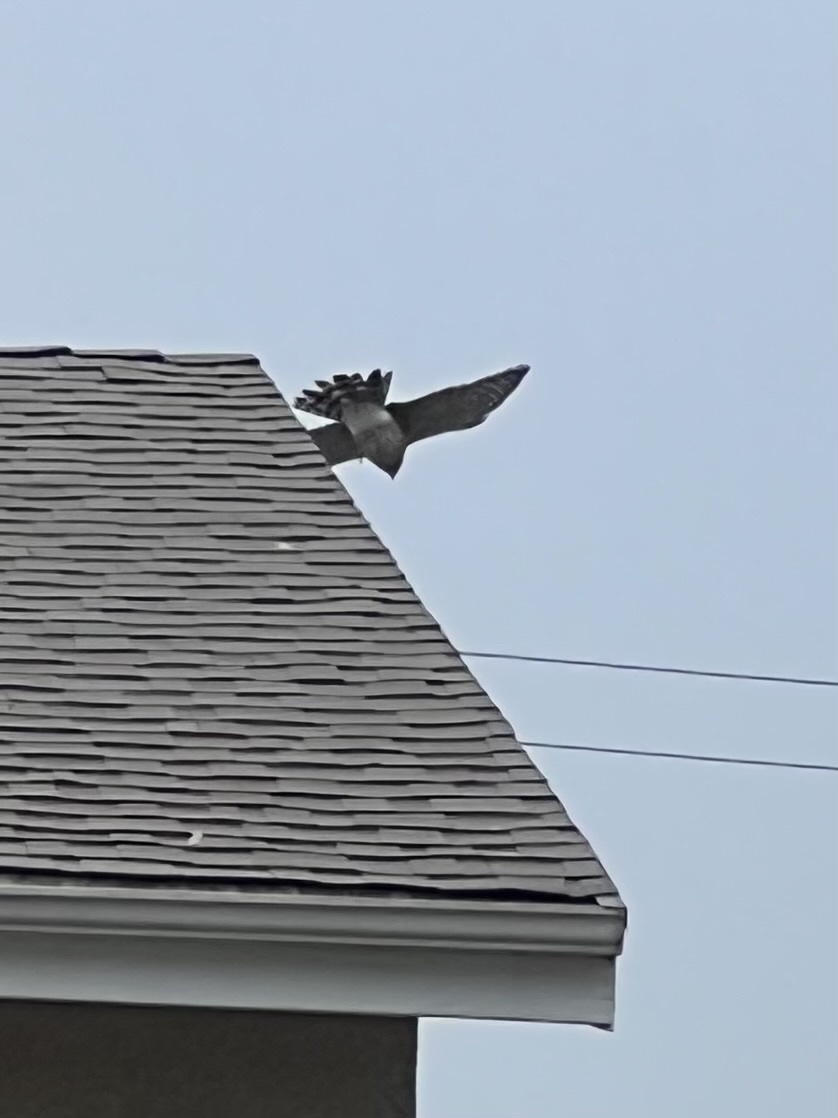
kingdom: Animalia
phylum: Chordata
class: Aves
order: Accipitriformes
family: Accipitridae
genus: Accipiter
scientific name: Accipiter cooperii
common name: Cooper's hawk
